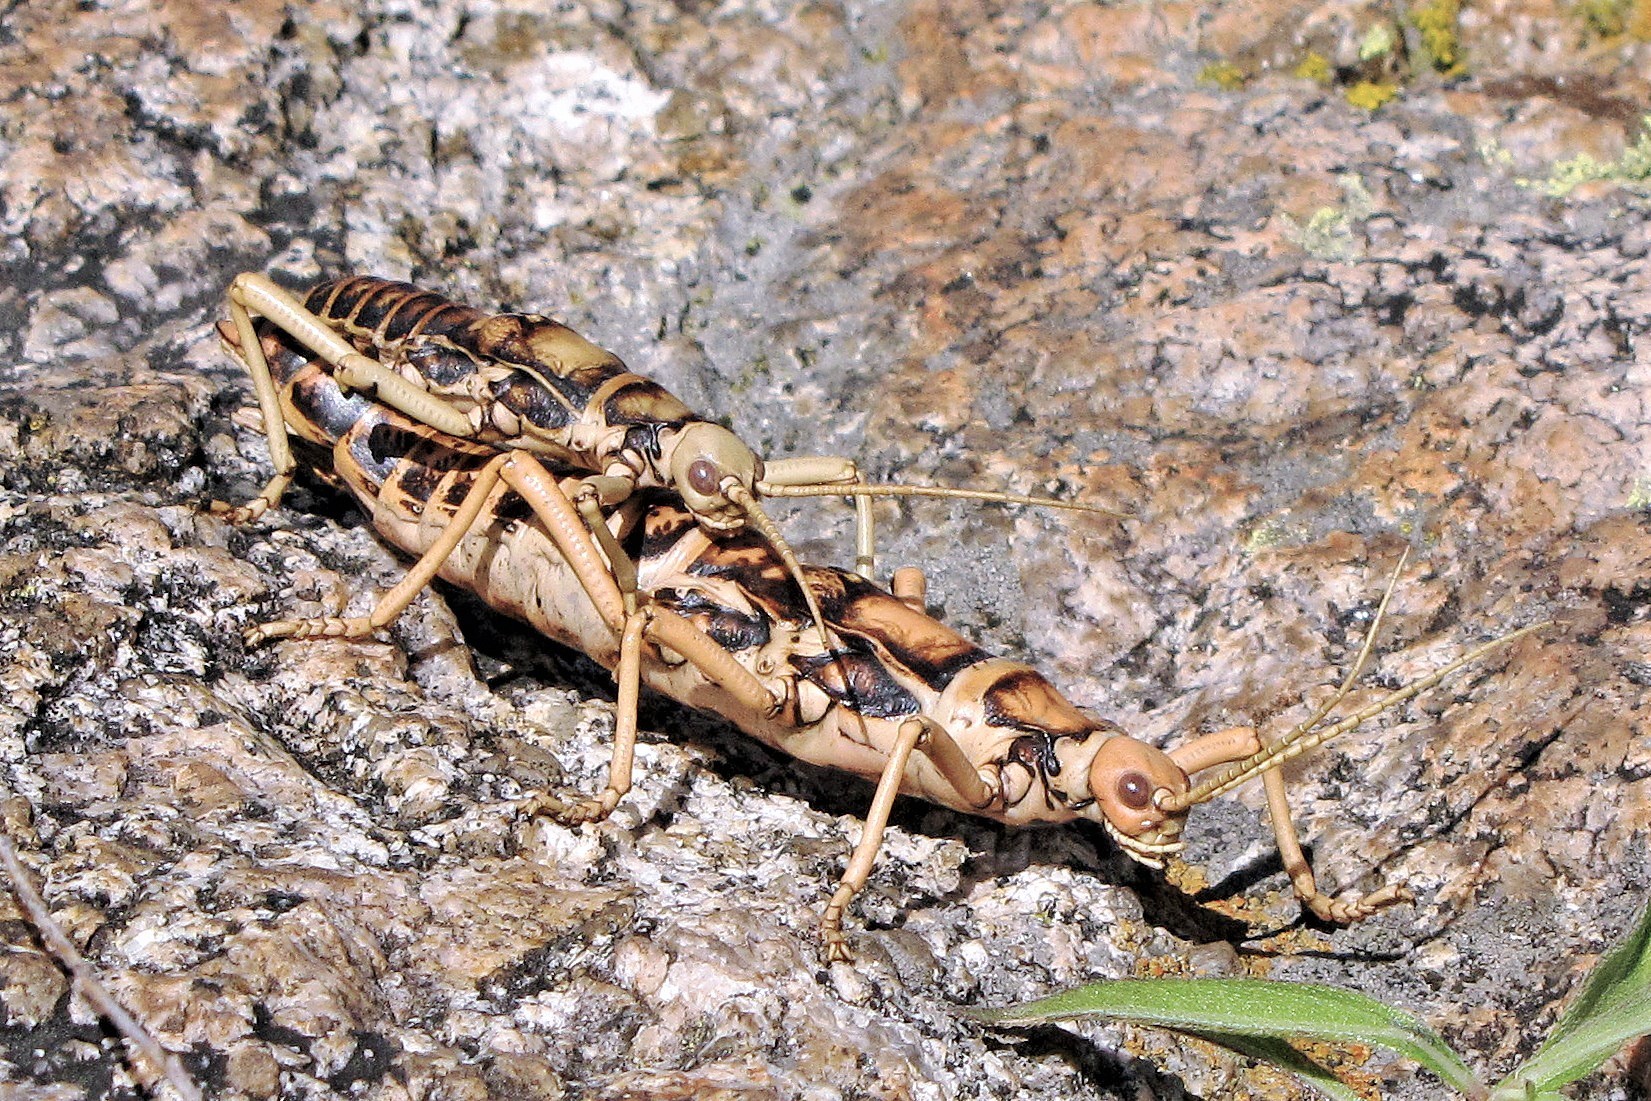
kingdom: Animalia
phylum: Arthropoda
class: Insecta
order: Phasmida
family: Agathemeridae
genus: Agathemera
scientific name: Agathemera luteola
